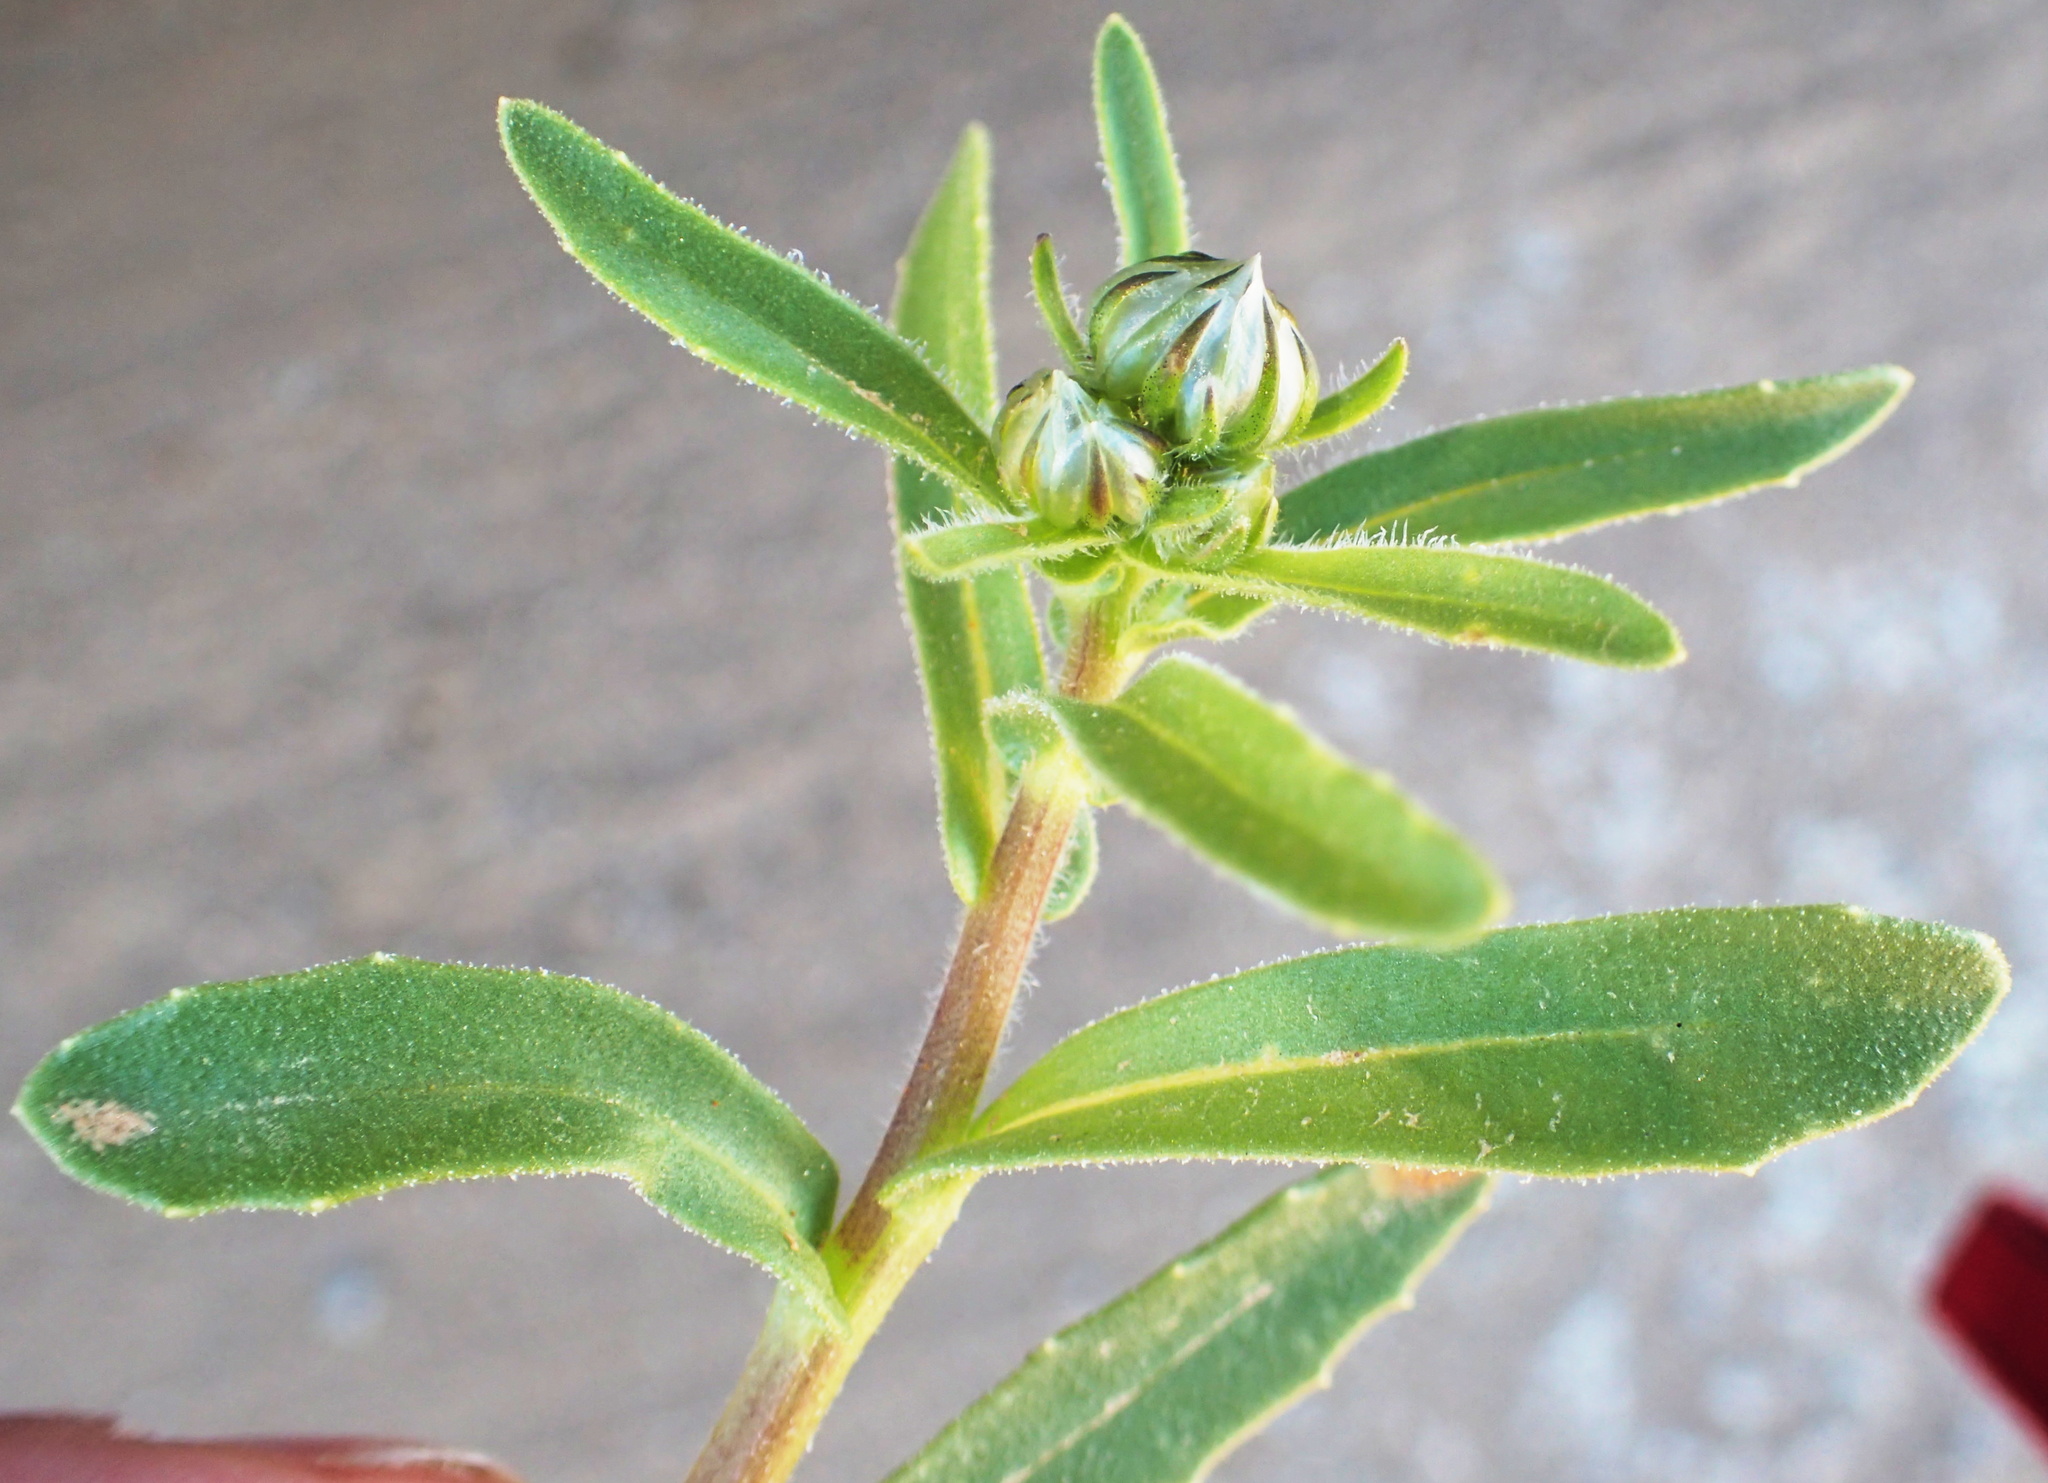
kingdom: Plantae
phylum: Tracheophyta
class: Magnoliopsida
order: Asterales
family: Asteraceae
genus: Osteospermum
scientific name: Osteospermum hyoseroides
